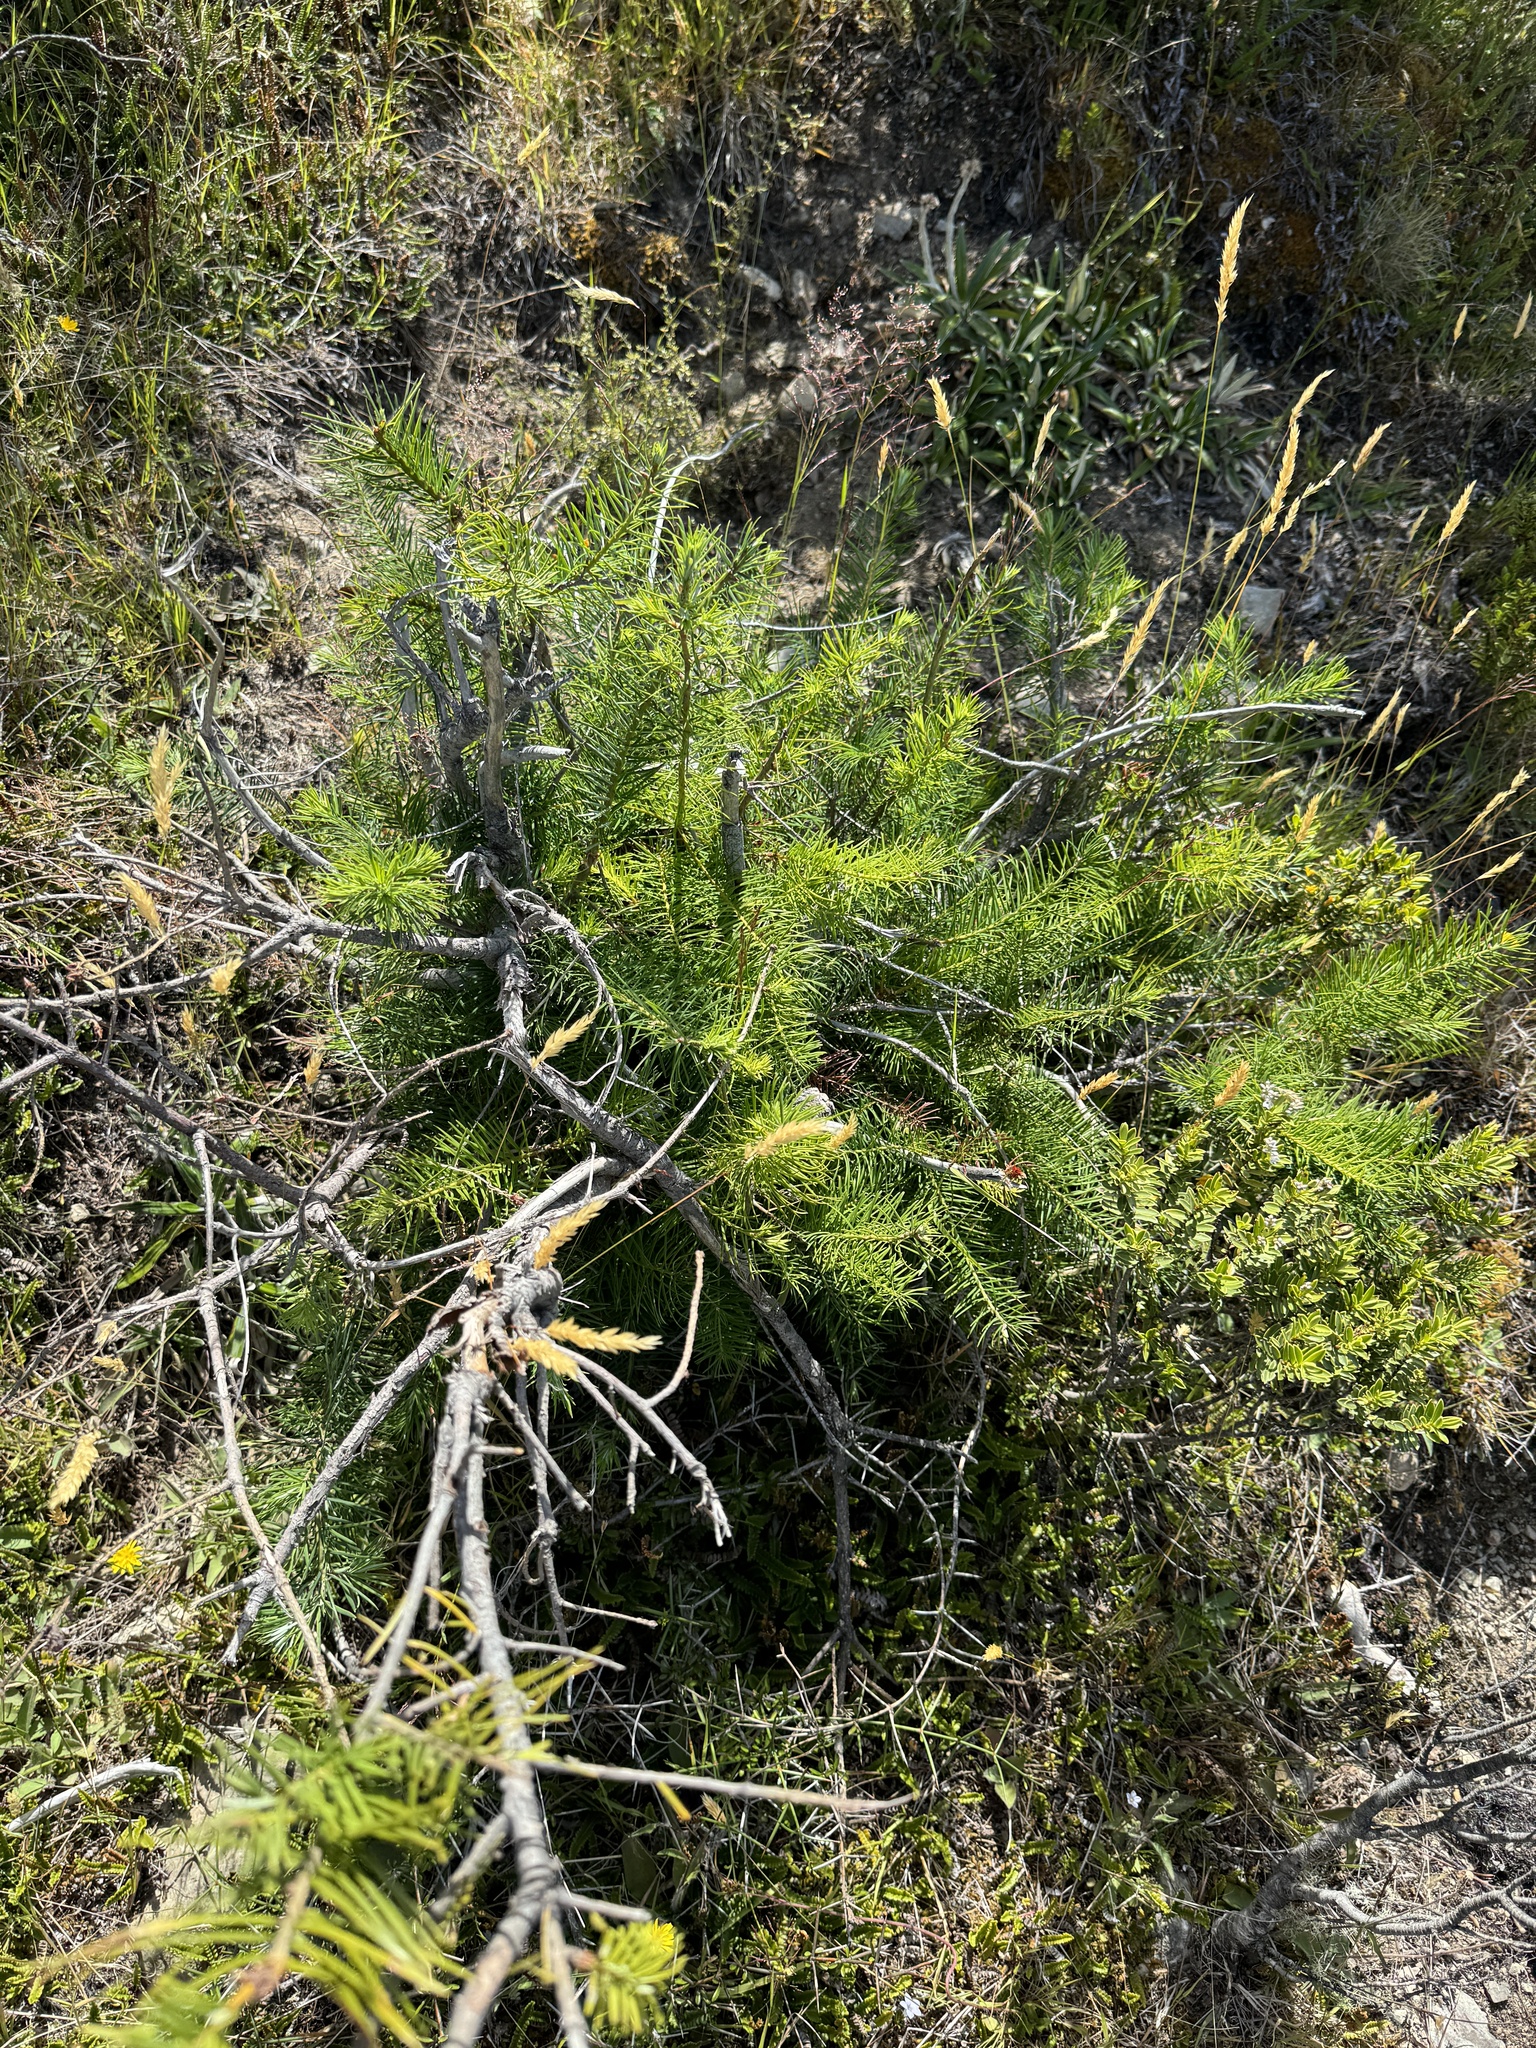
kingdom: Plantae
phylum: Tracheophyta
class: Pinopsida
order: Pinales
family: Pinaceae
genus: Pseudotsuga
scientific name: Pseudotsuga menziesii
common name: Douglas fir
